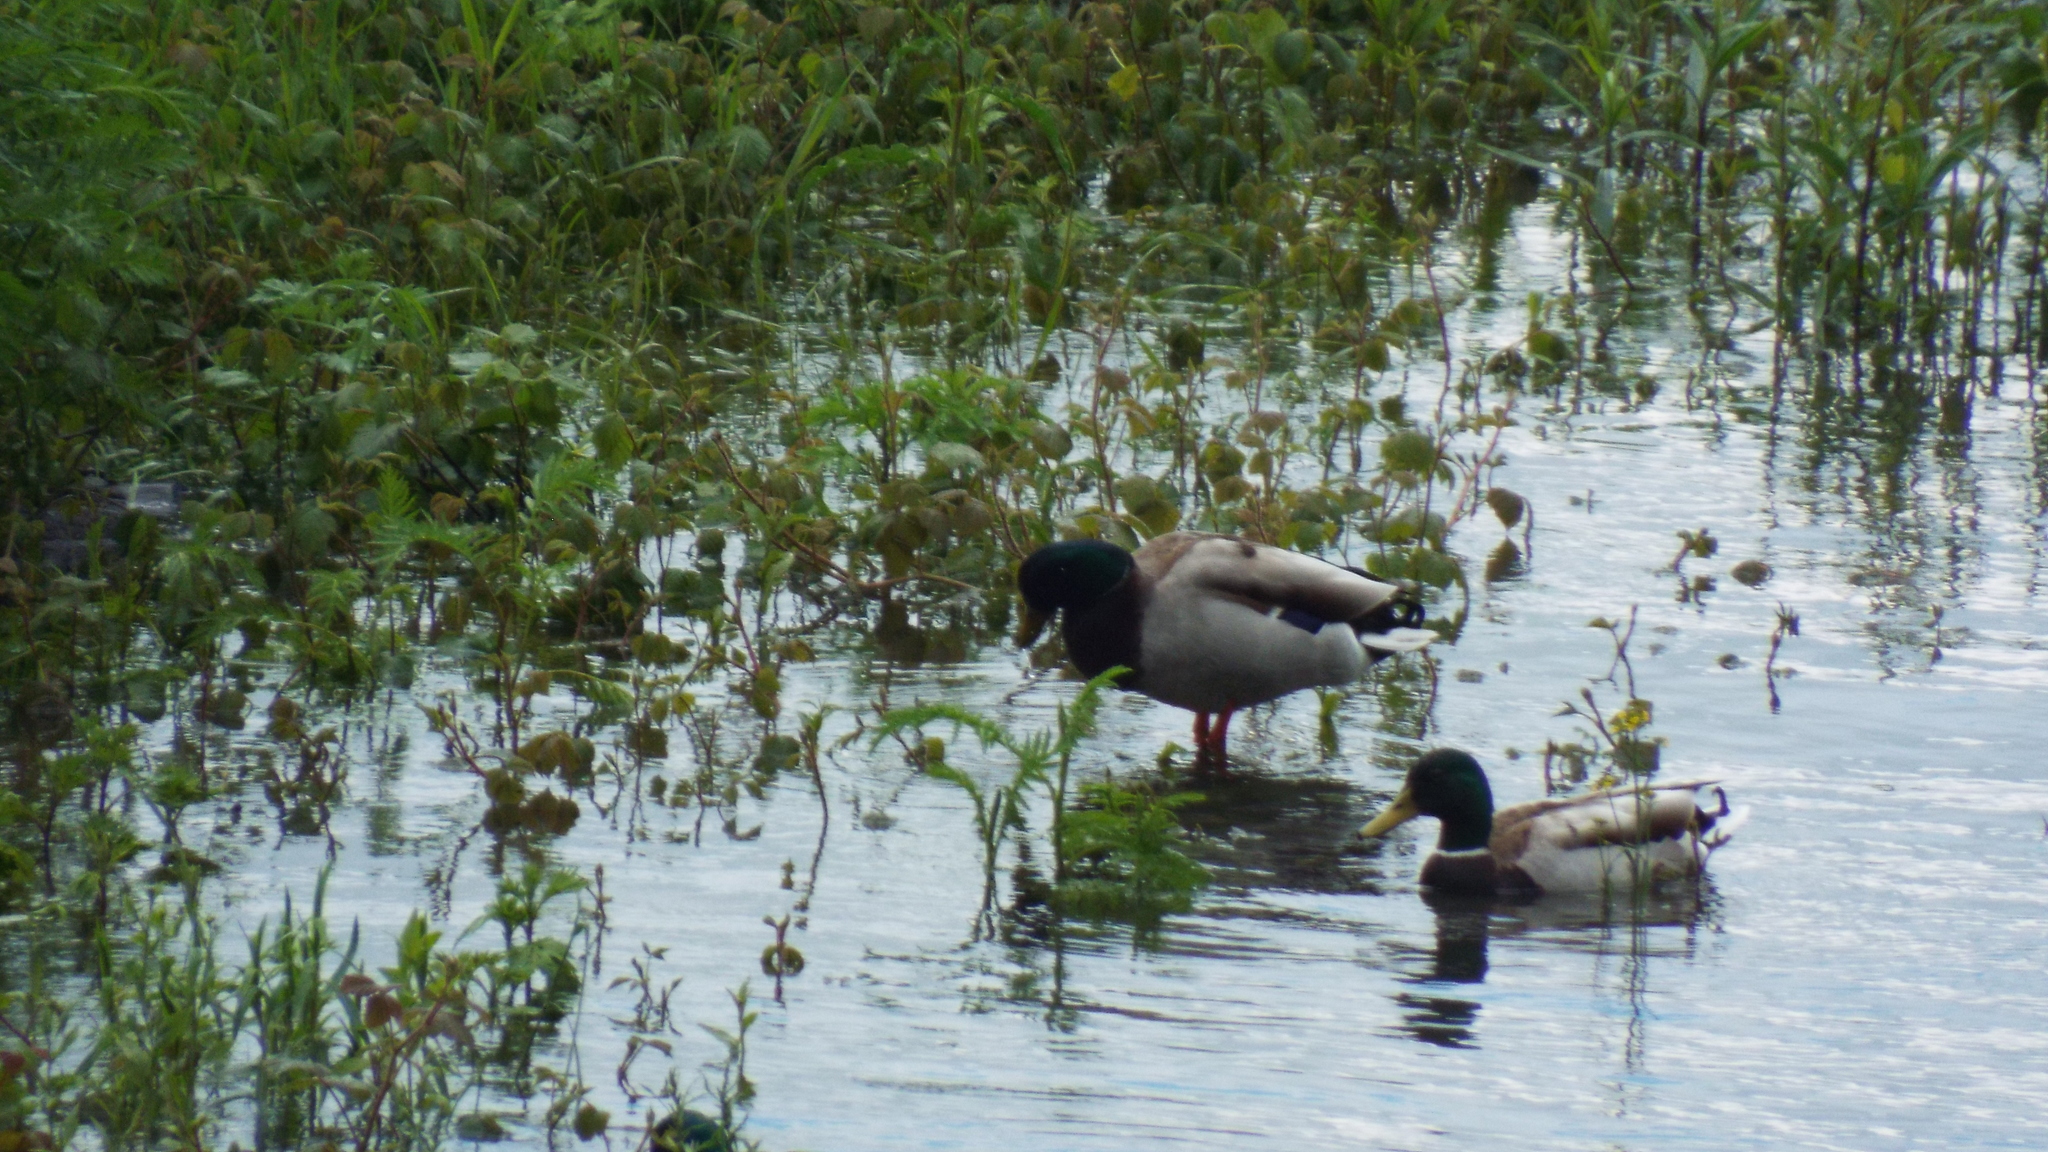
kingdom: Animalia
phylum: Chordata
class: Aves
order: Anseriformes
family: Anatidae
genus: Anas
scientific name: Anas platyrhynchos
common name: Mallard
